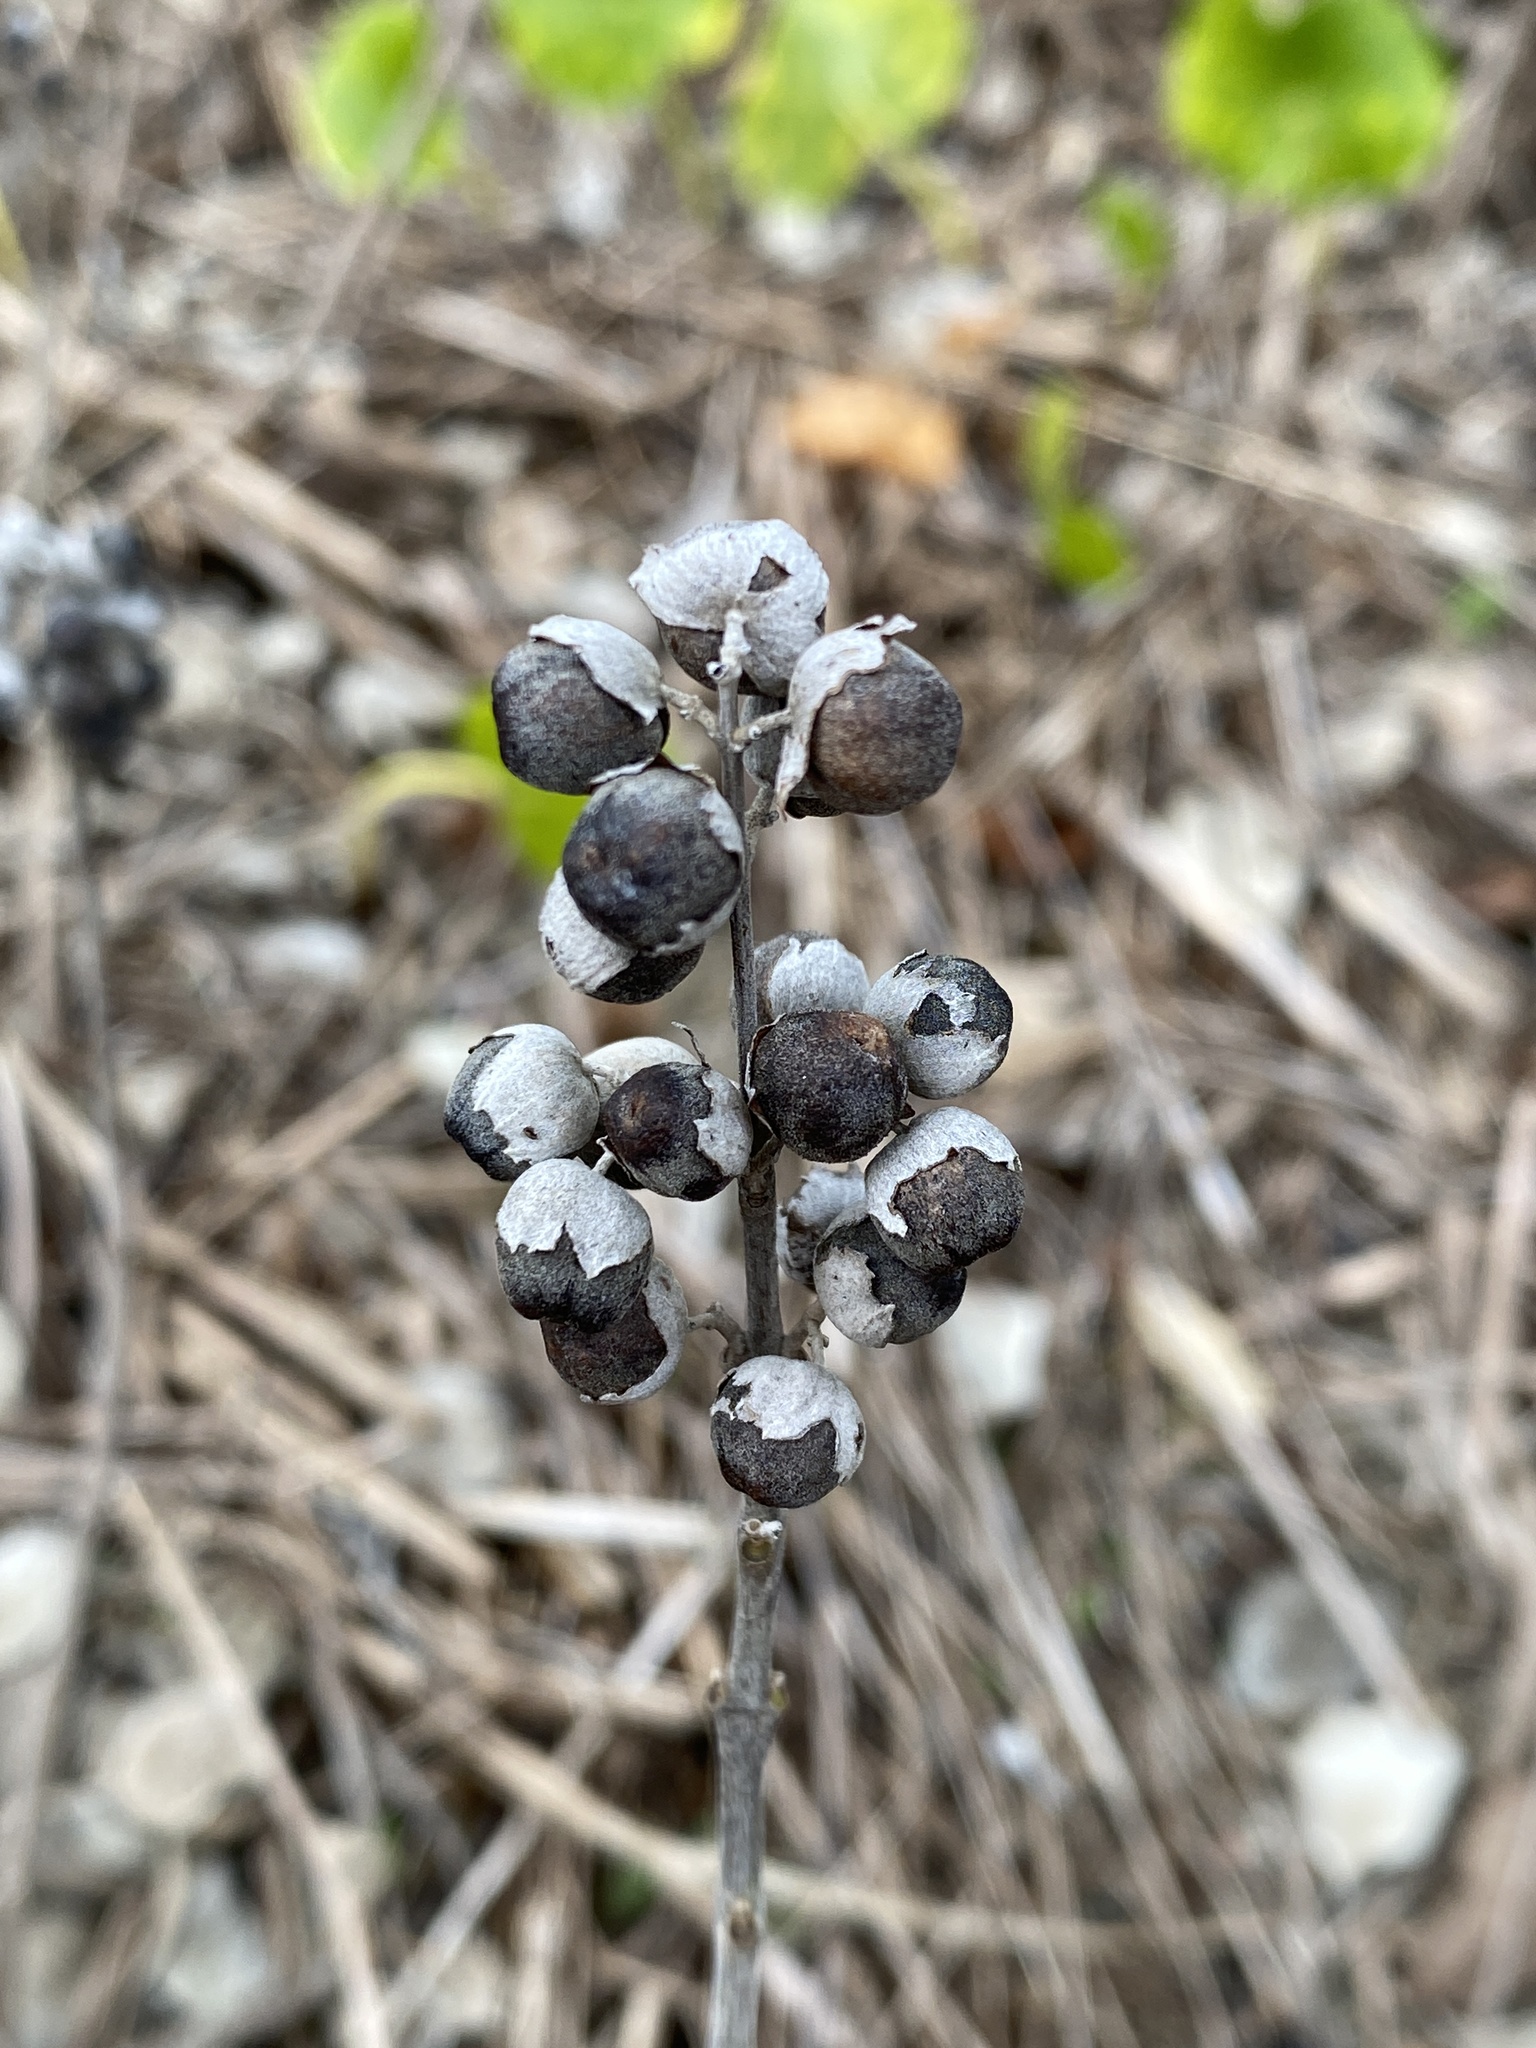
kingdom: Plantae
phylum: Tracheophyta
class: Magnoliopsida
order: Lamiales
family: Lamiaceae
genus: Vitex
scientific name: Vitex rotundifolia
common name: Beach vitex
